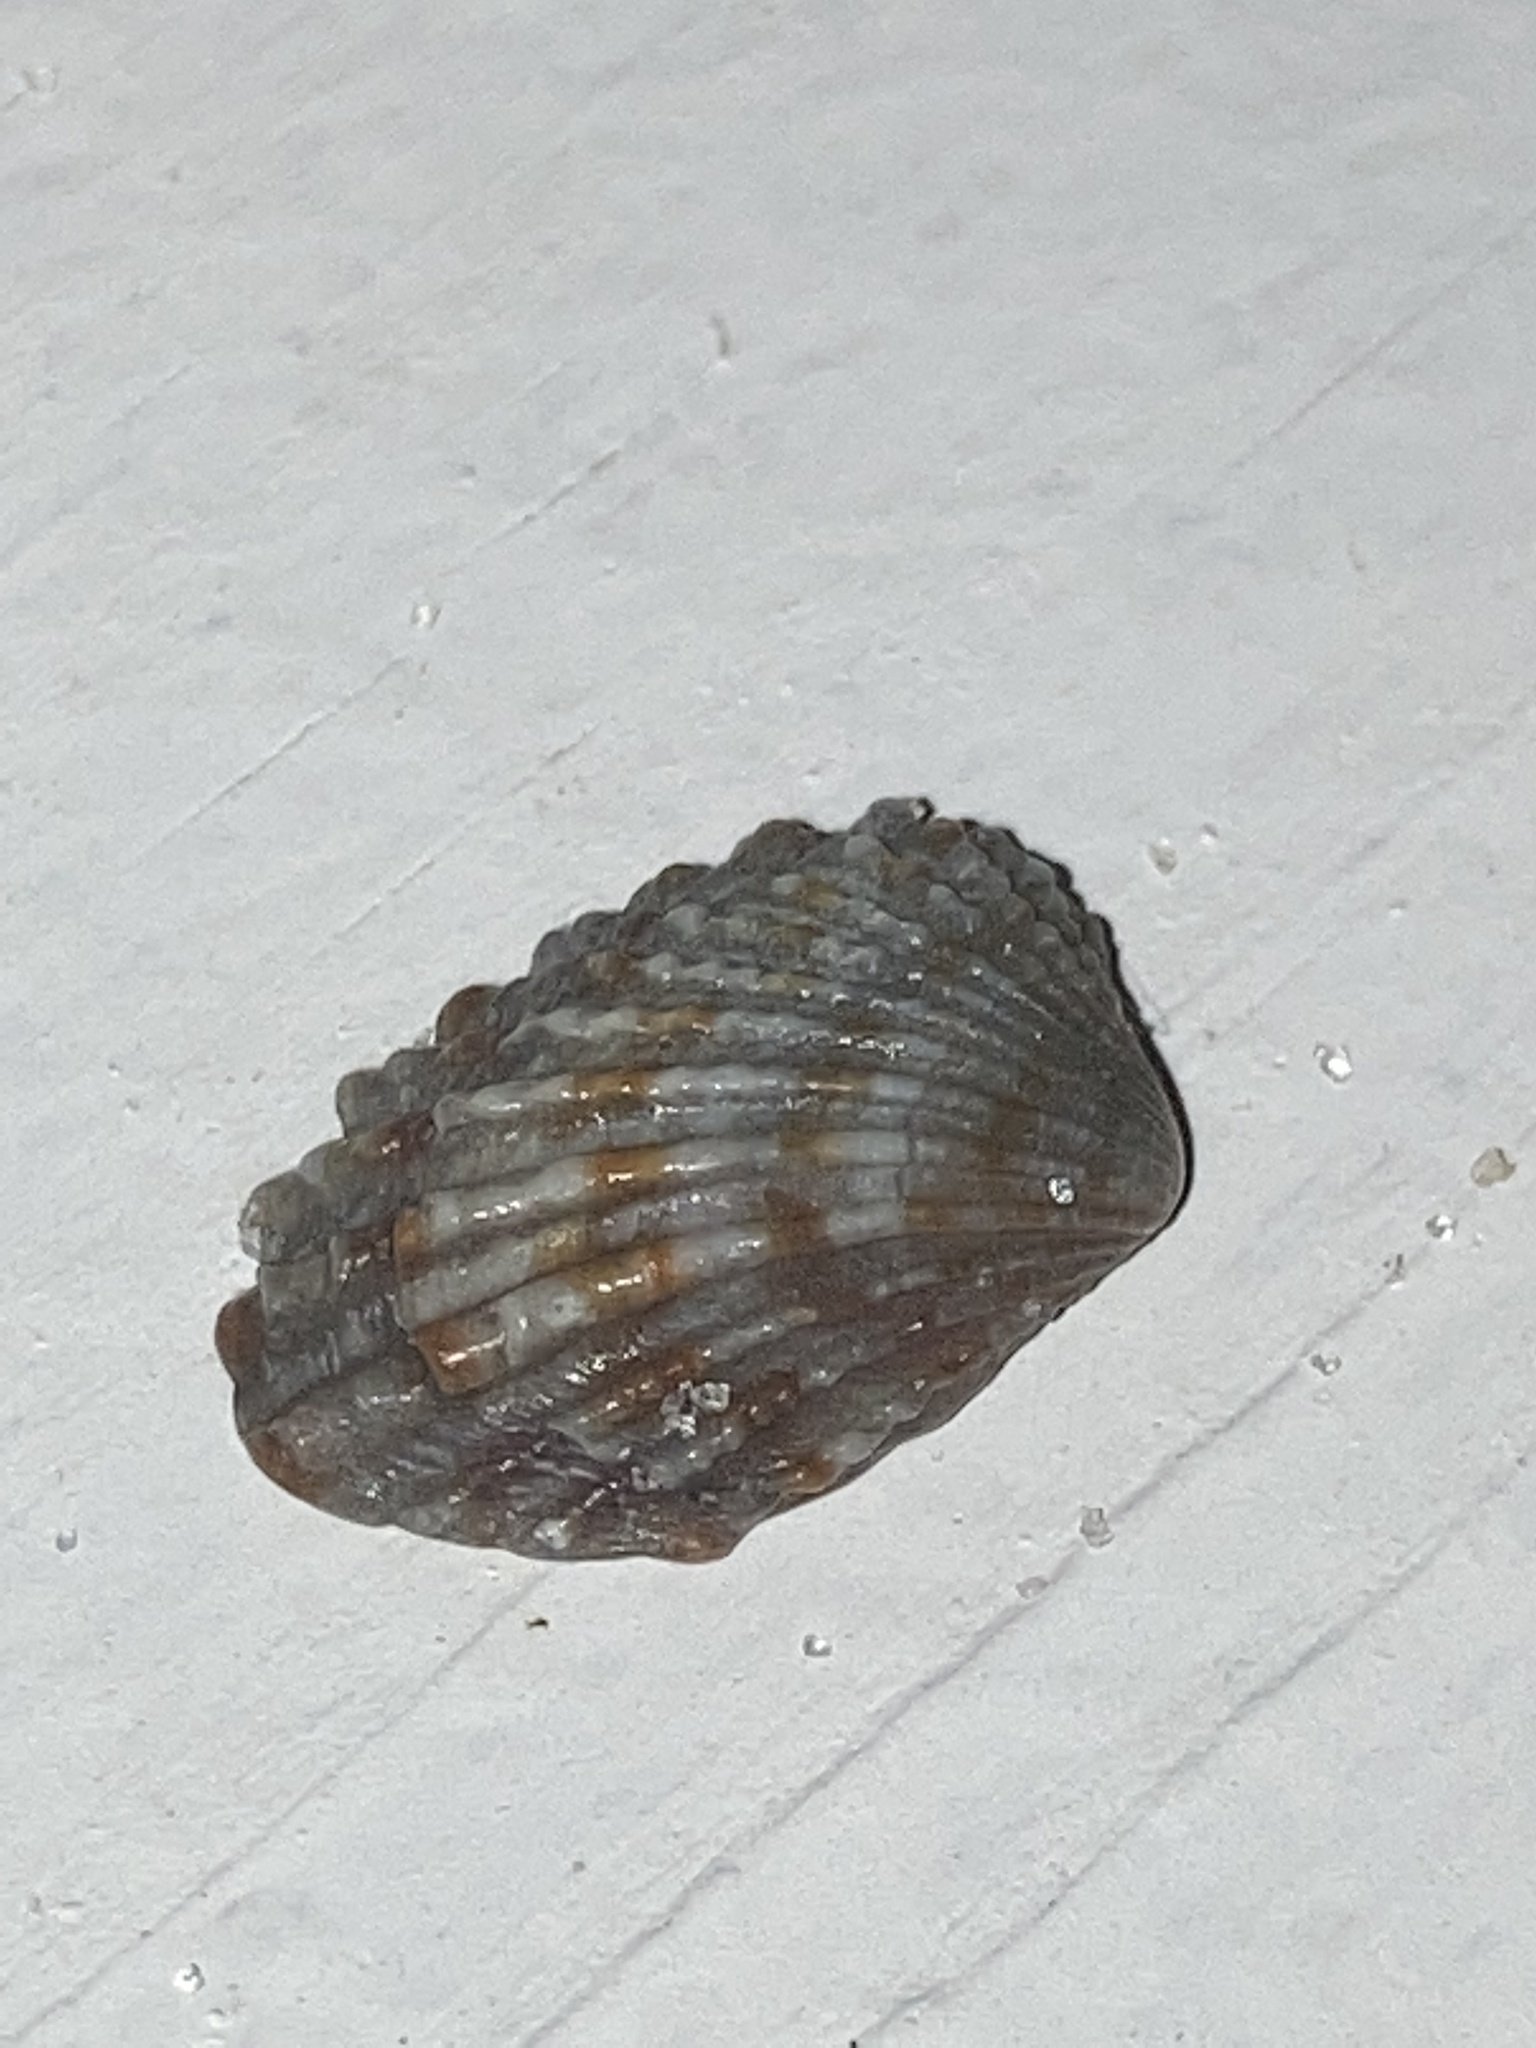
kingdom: Animalia
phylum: Mollusca
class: Bivalvia
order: Carditida
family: Carditidae
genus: Cardites
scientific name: Cardites floridanus
